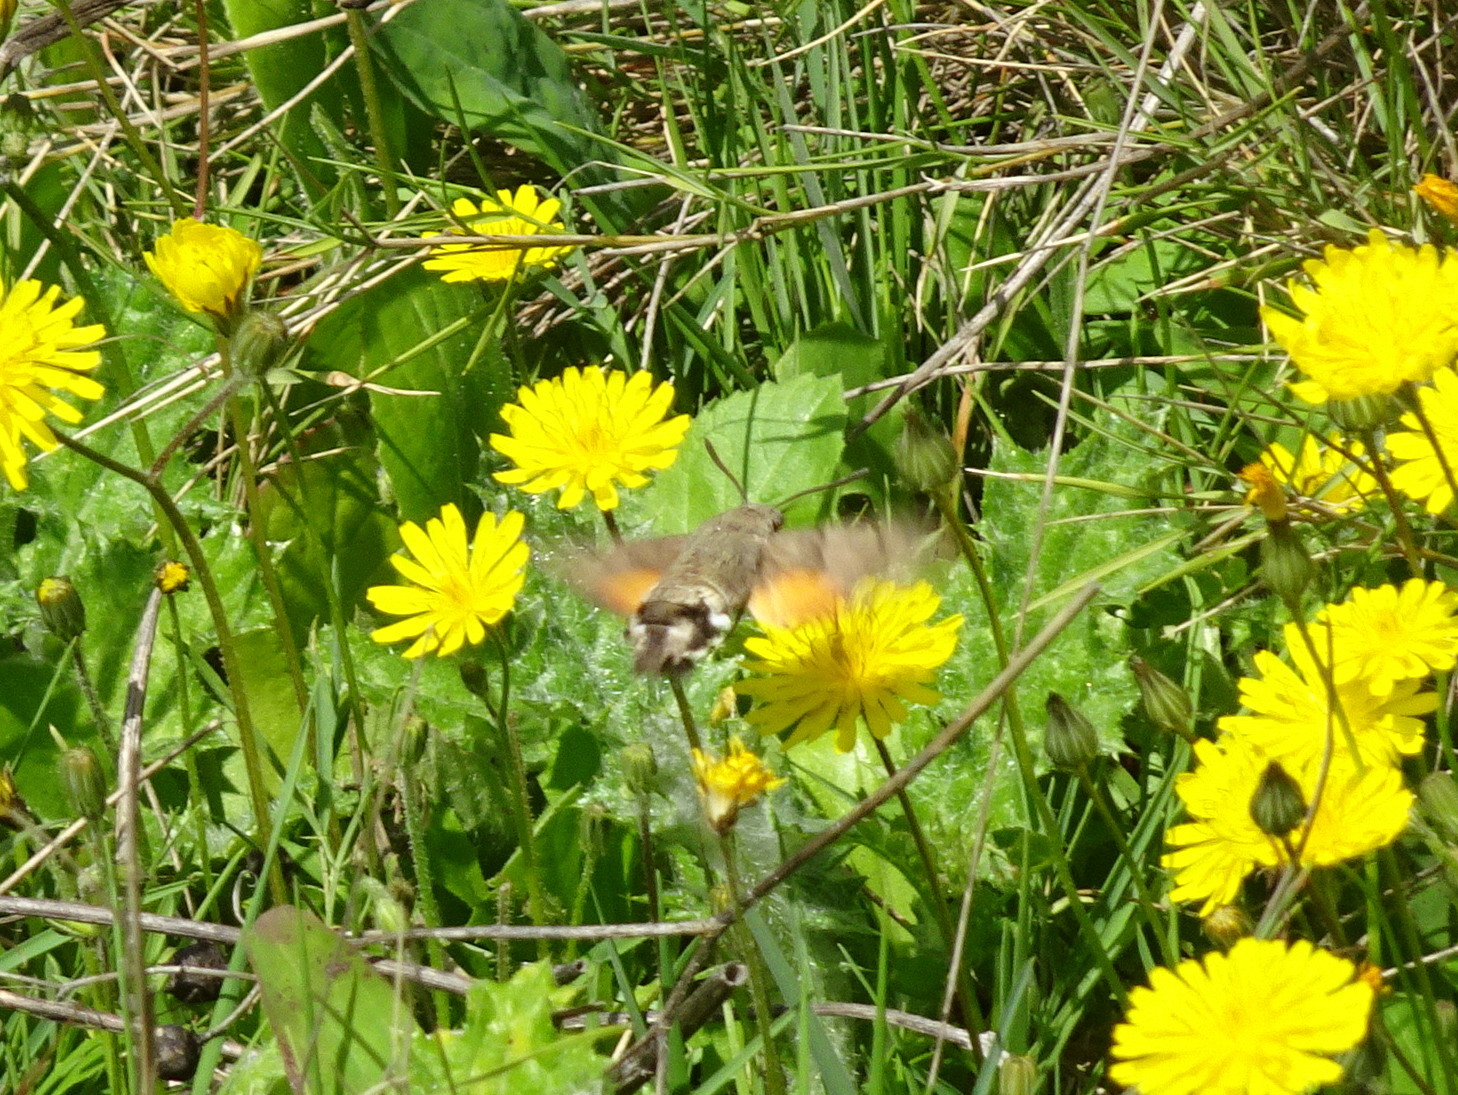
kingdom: Animalia
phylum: Arthropoda
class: Insecta
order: Lepidoptera
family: Sphingidae
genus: Macroglossum
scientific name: Macroglossum stellatarum
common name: Humming-bird hawk-moth
